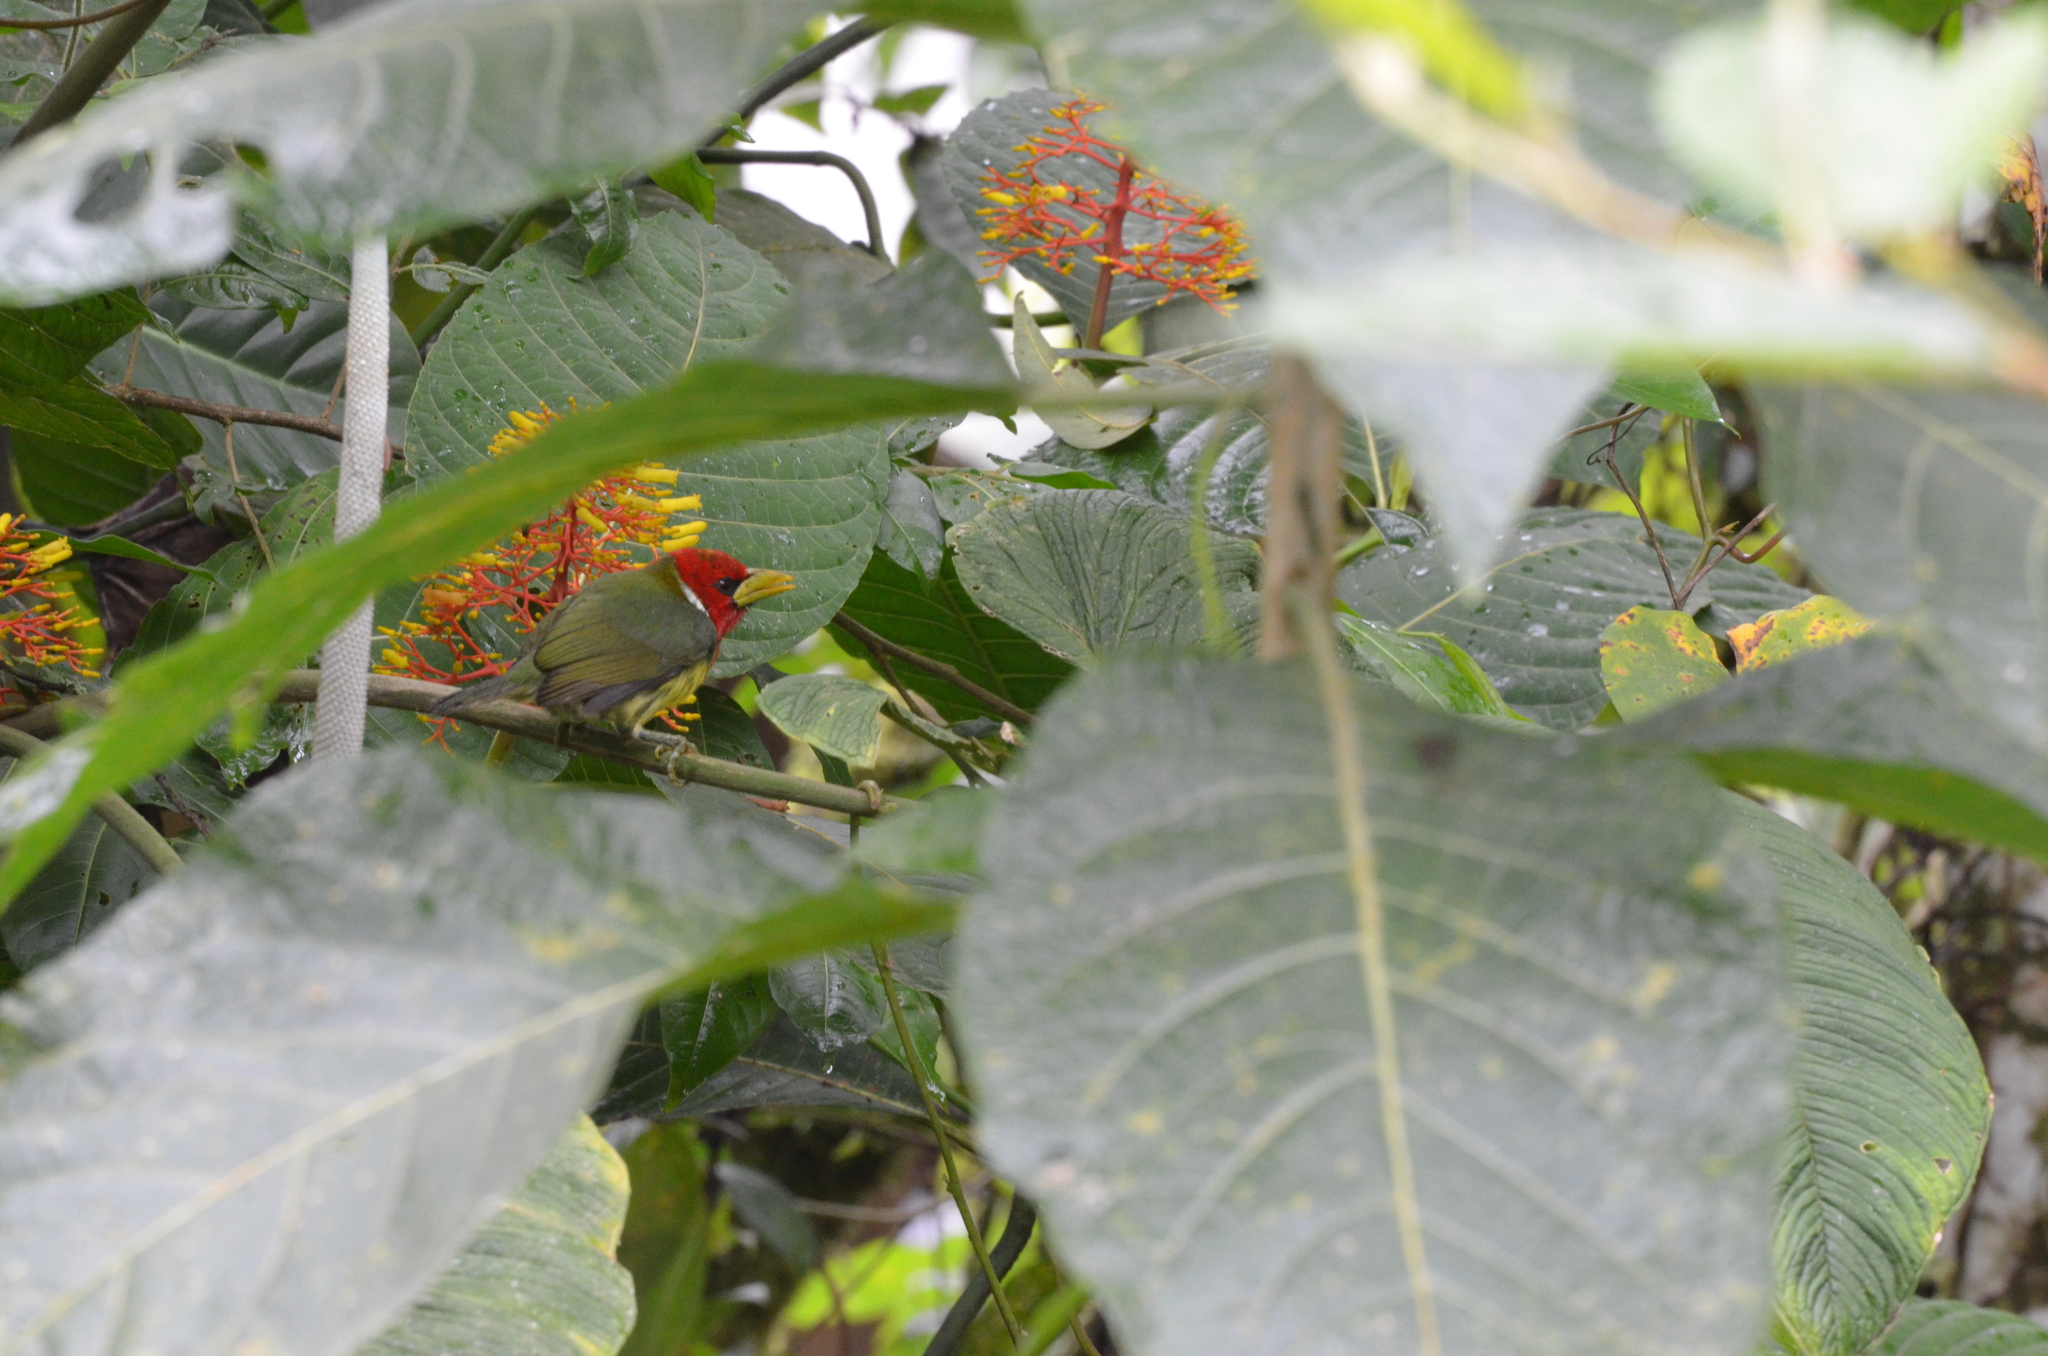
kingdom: Animalia
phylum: Chordata
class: Aves
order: Piciformes
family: Capitonidae
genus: Eubucco
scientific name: Eubucco bourcierii
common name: Red-headed barbet
